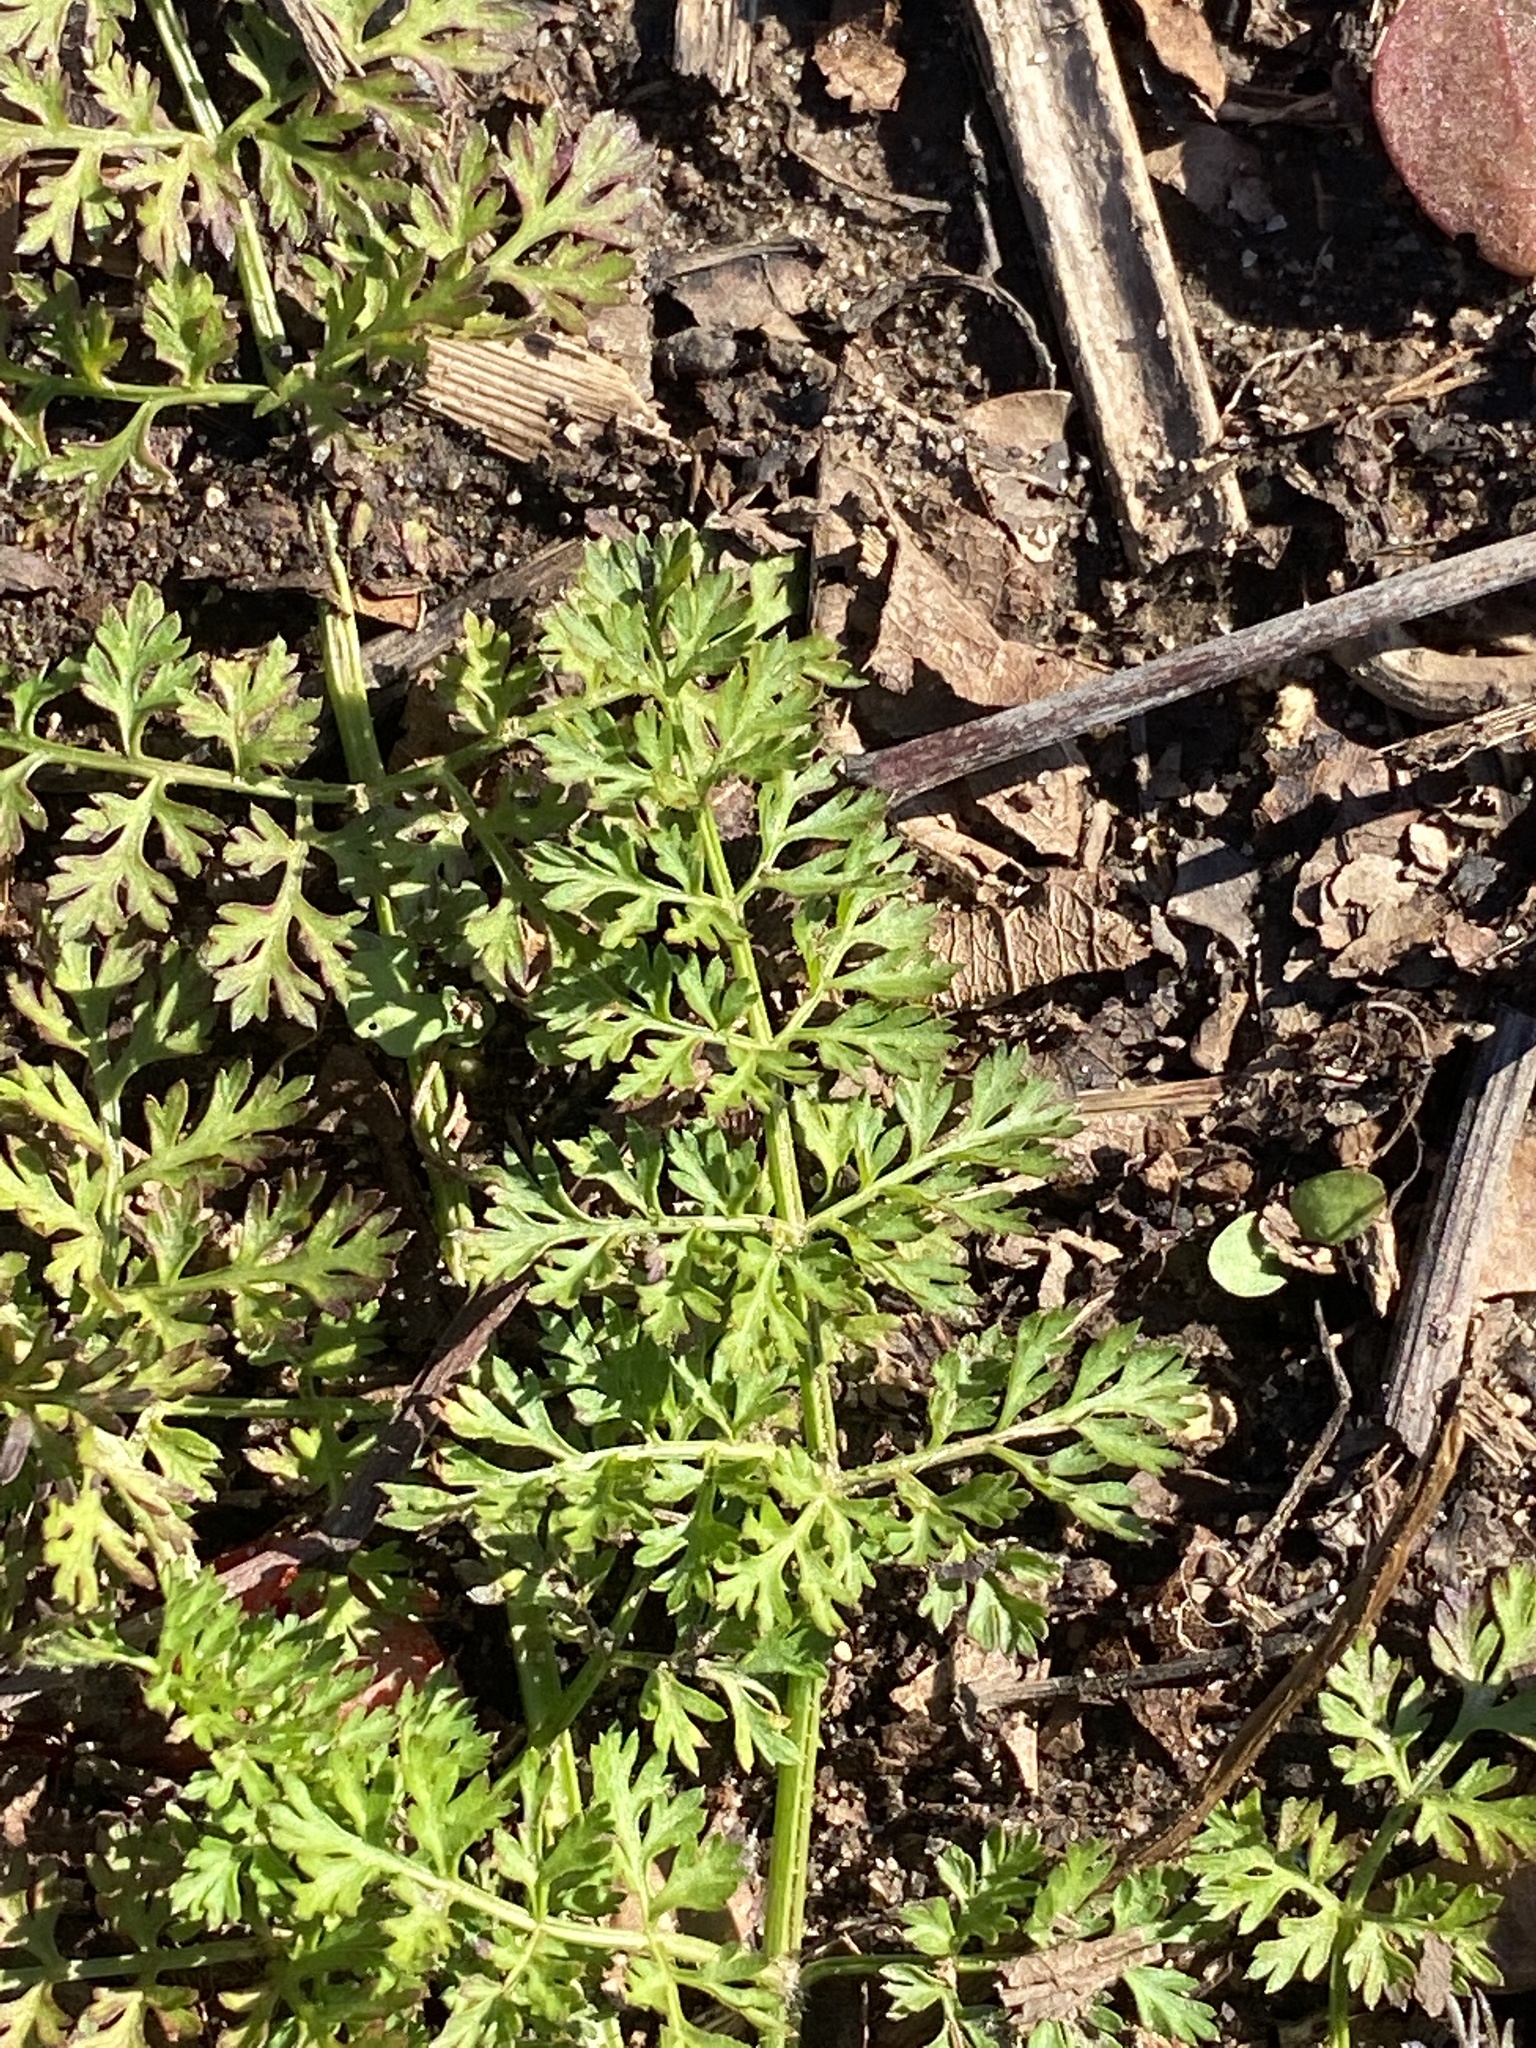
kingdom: Plantae
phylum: Tracheophyta
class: Magnoliopsida
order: Apiales
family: Apiaceae
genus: Daucus
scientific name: Daucus carota
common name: Wild carrot
